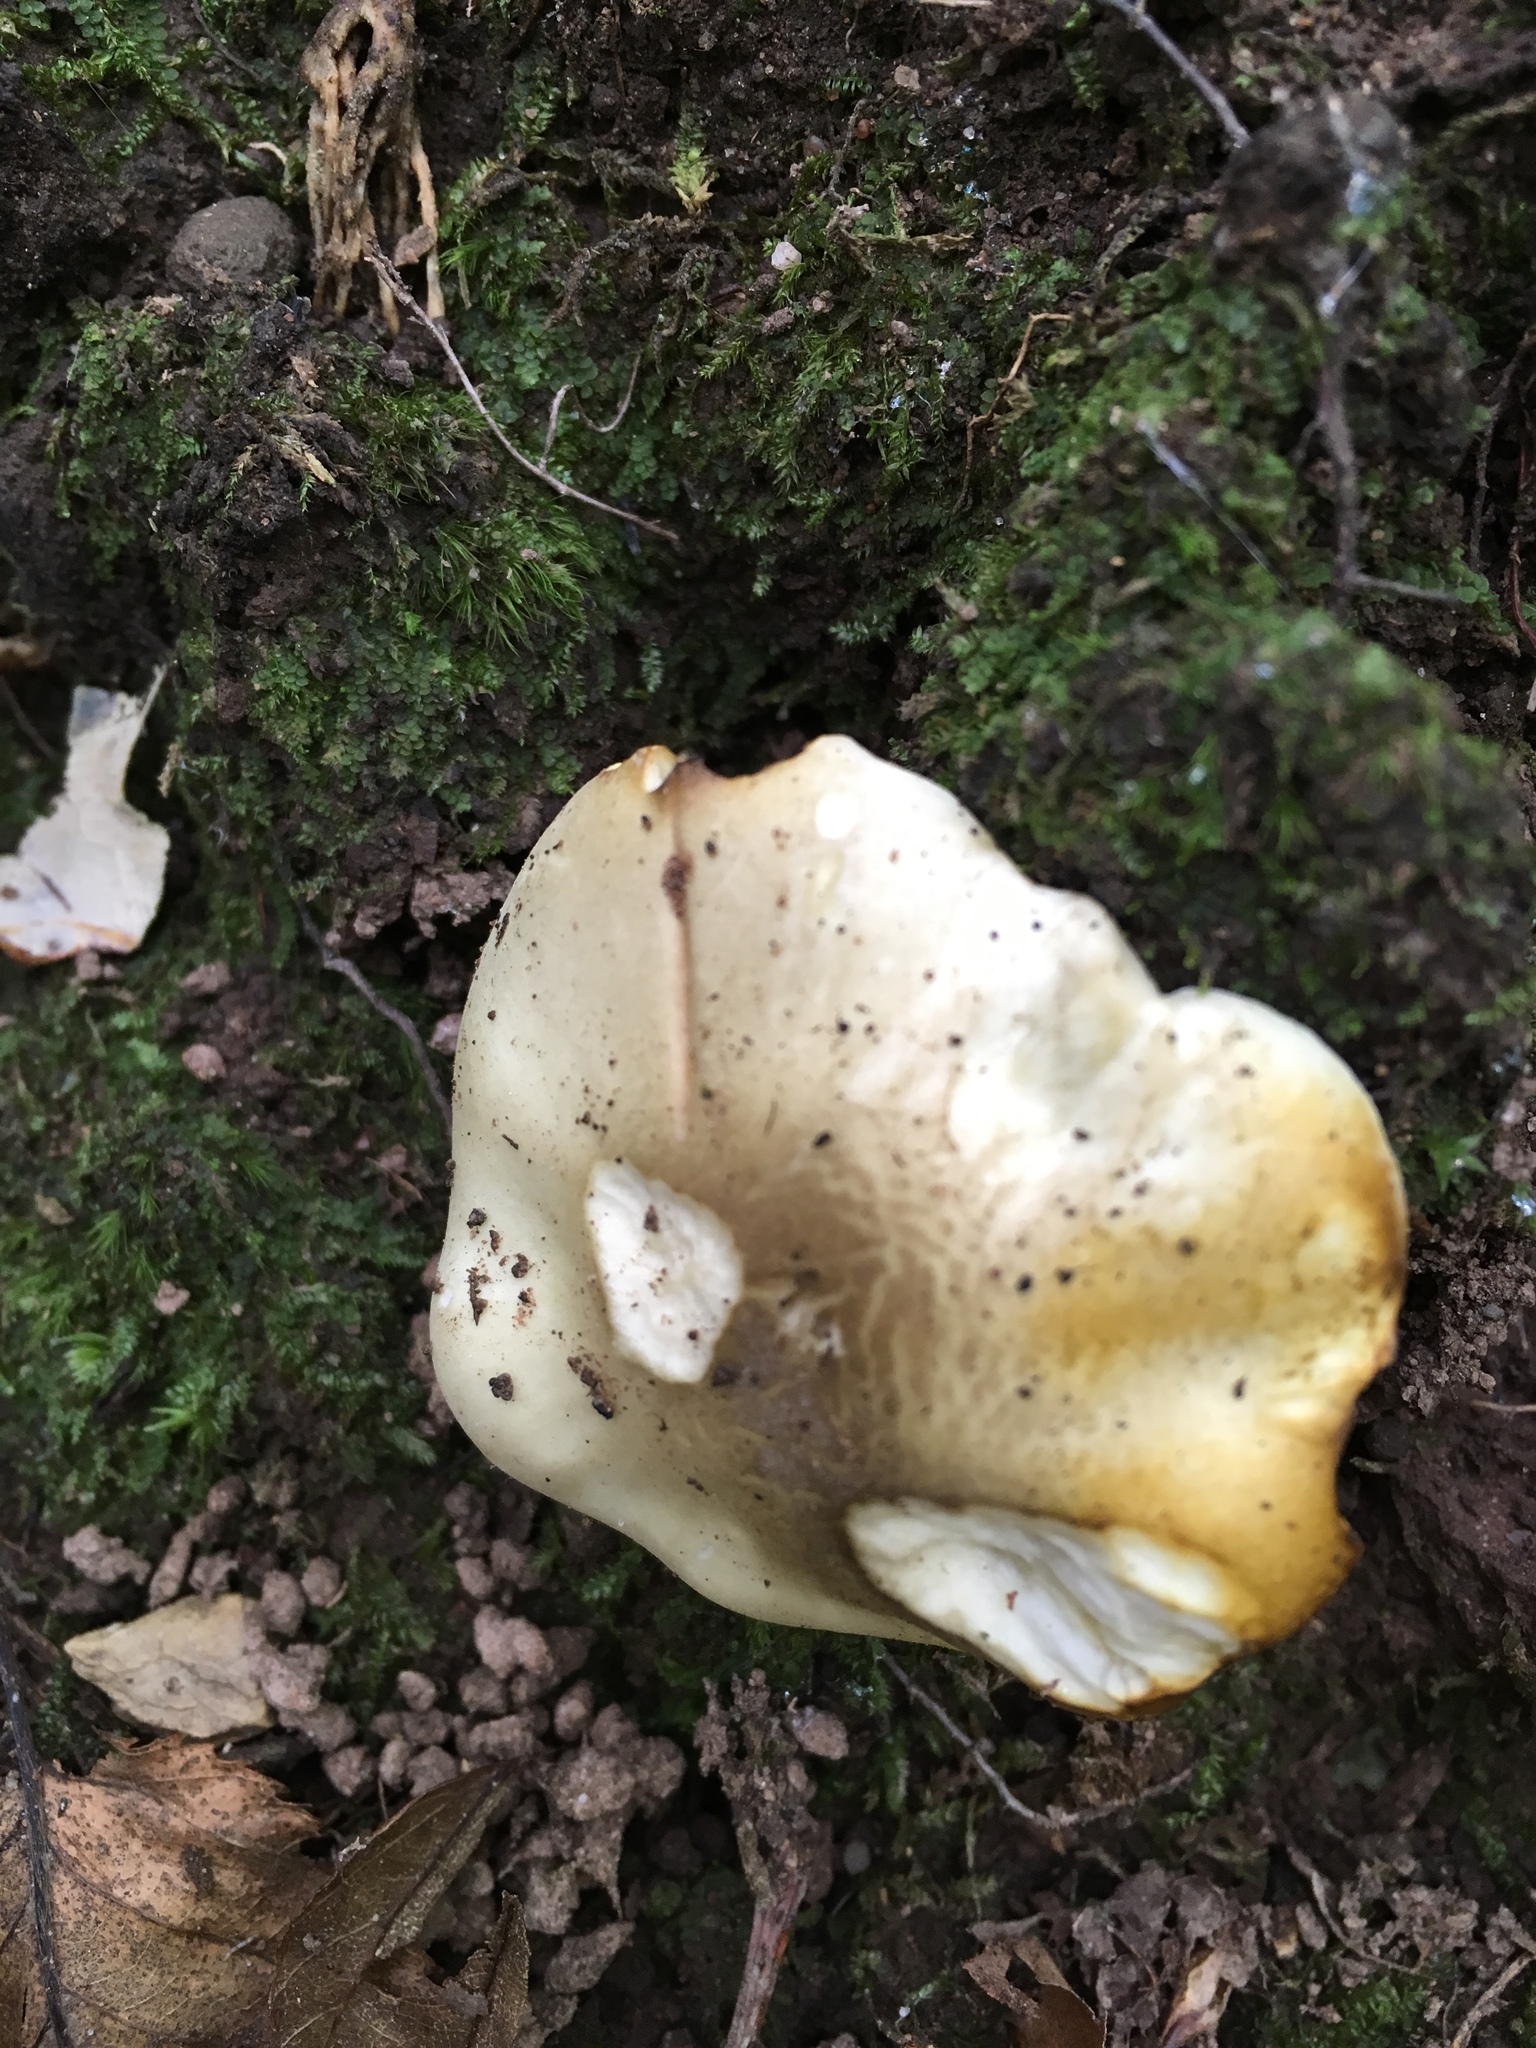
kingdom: Fungi
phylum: Basidiomycota
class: Agaricomycetes
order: Agaricales
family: Tricholomataceae
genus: Tricholoma
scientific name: Tricholoma sejunctum
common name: Deceiving knight
